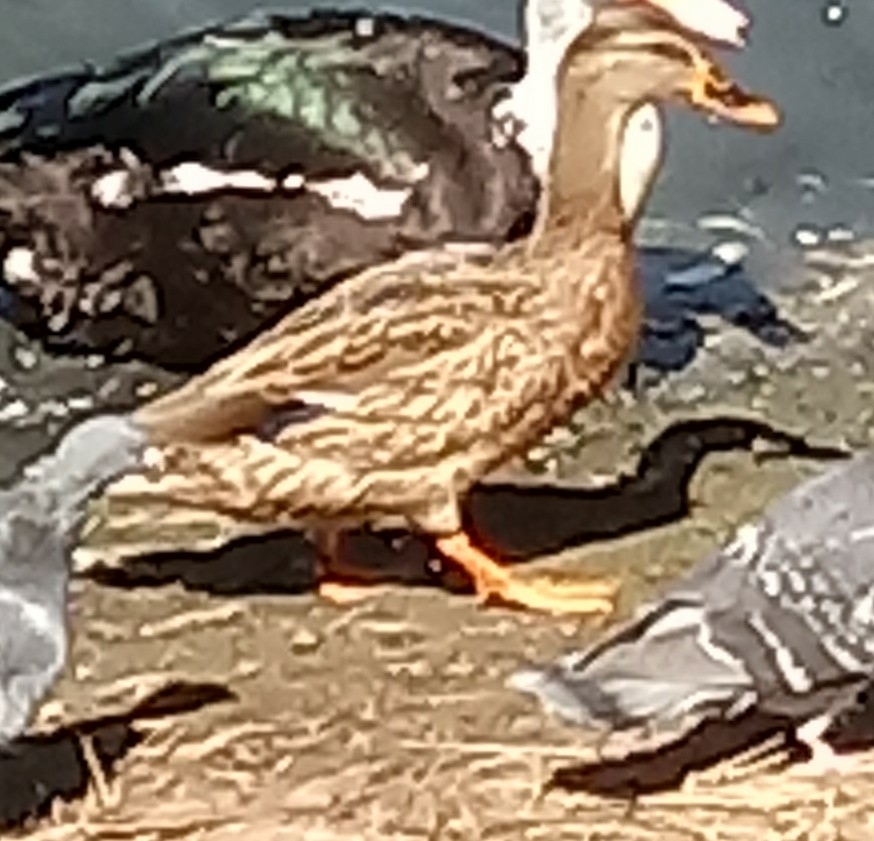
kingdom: Animalia
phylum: Chordata
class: Aves
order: Anseriformes
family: Anatidae
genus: Anas
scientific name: Anas platyrhynchos
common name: Mallard
